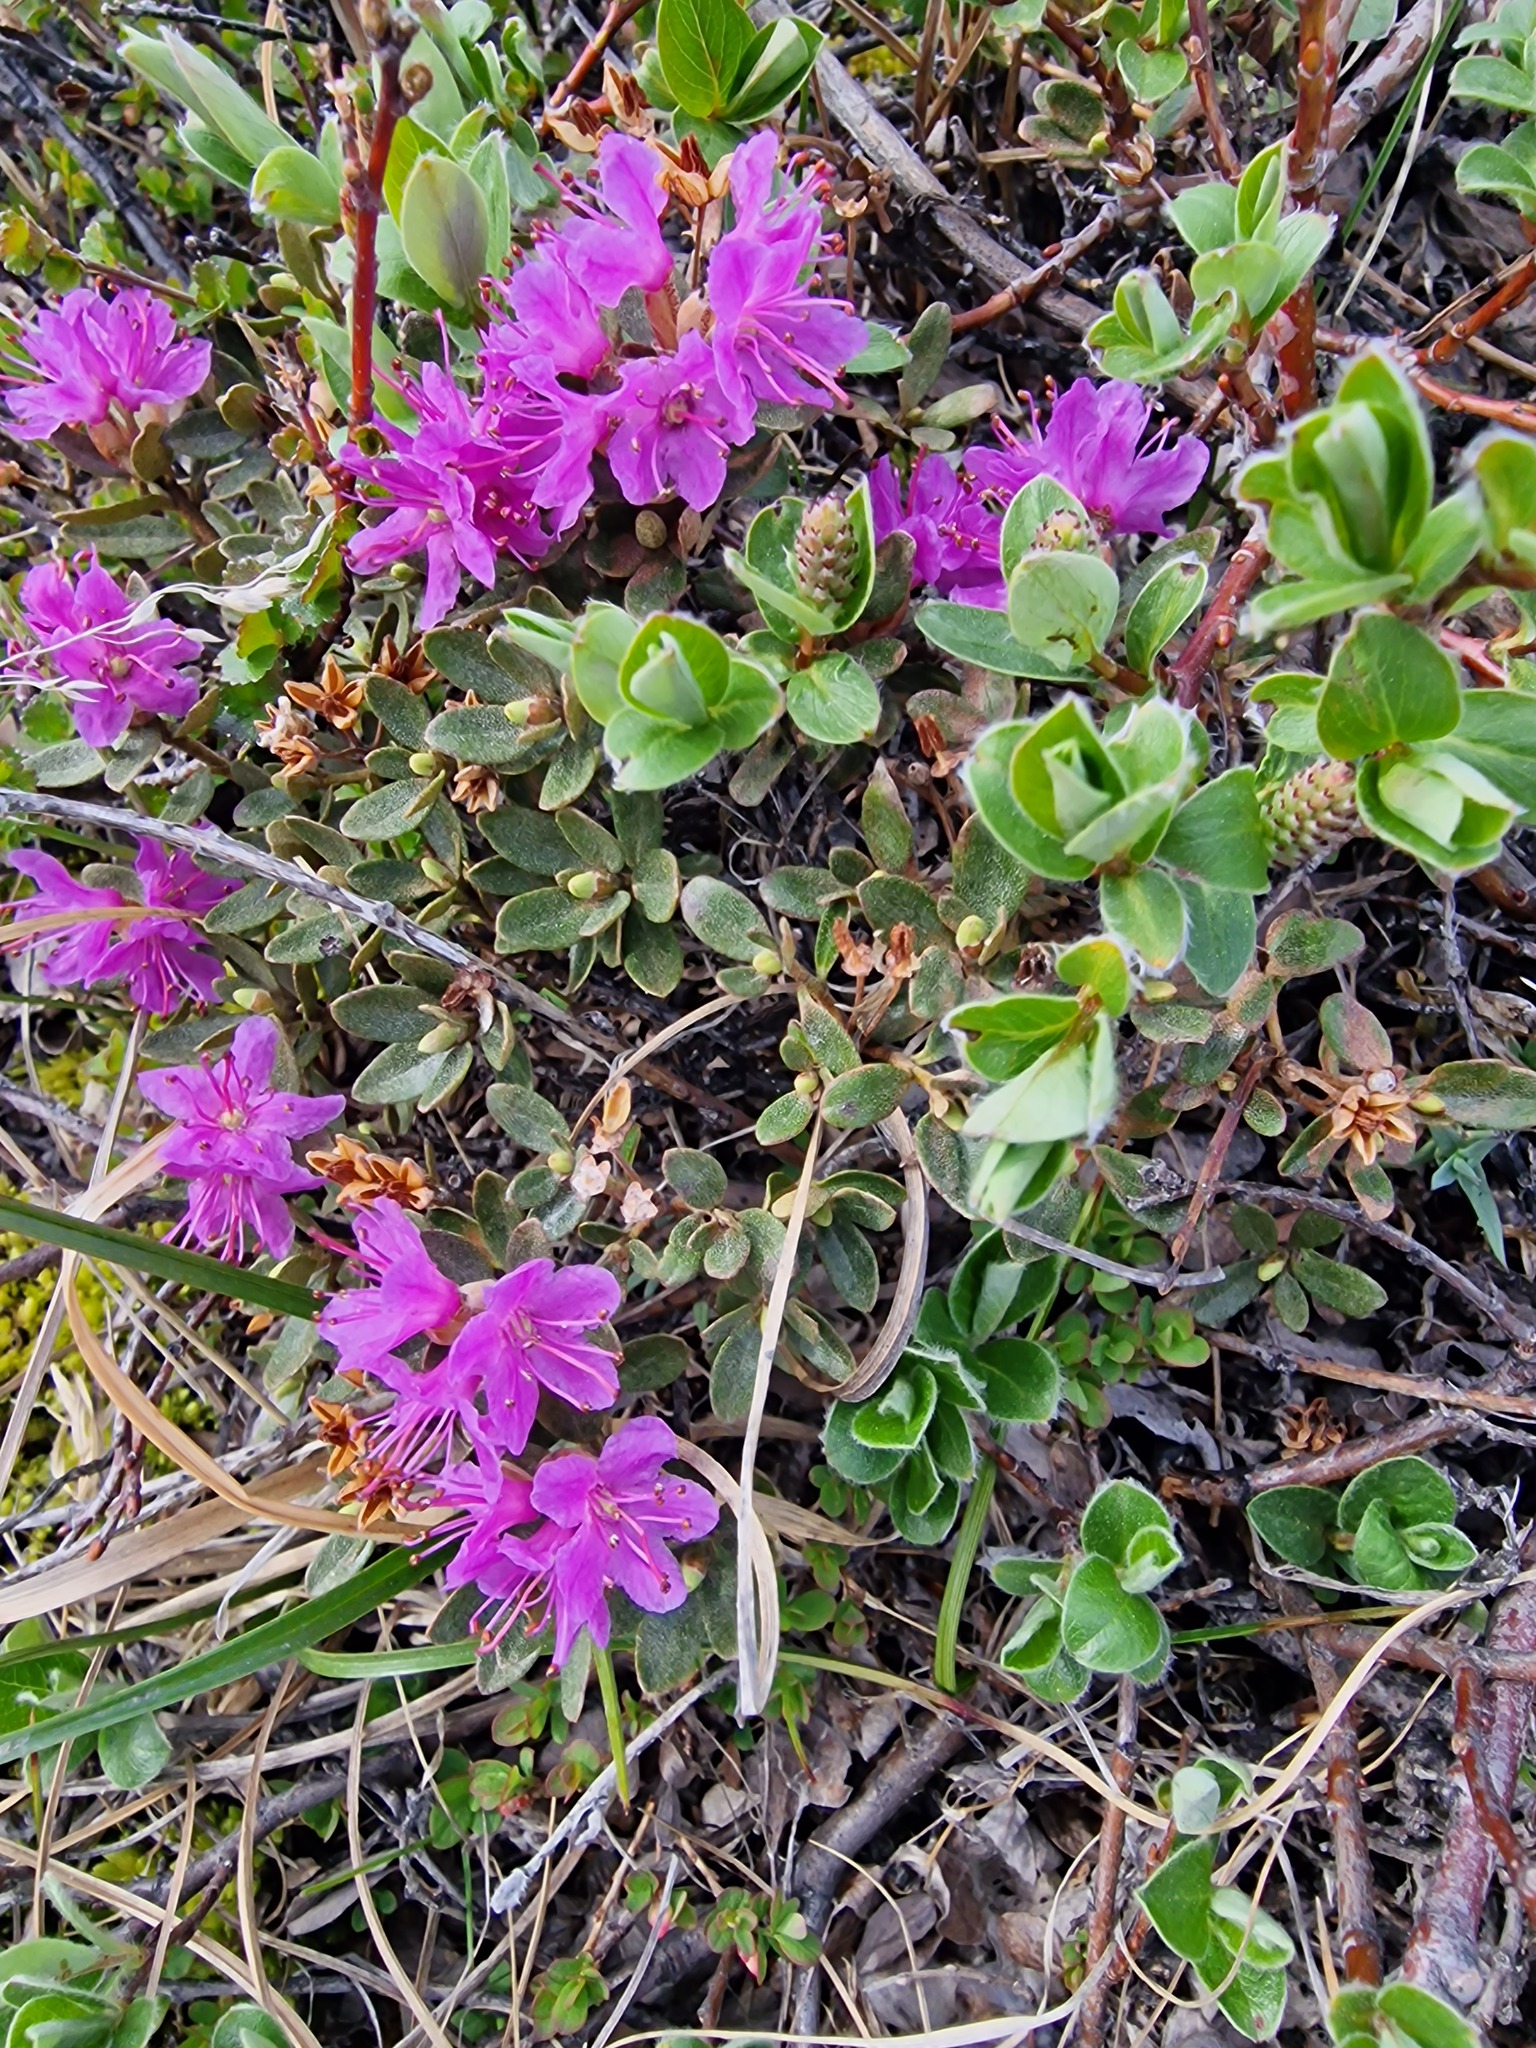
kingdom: Plantae
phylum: Tracheophyta
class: Magnoliopsida
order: Ericales
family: Ericaceae
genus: Rhododendron
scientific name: Rhododendron lapponicum
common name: Lapland rhododendron
